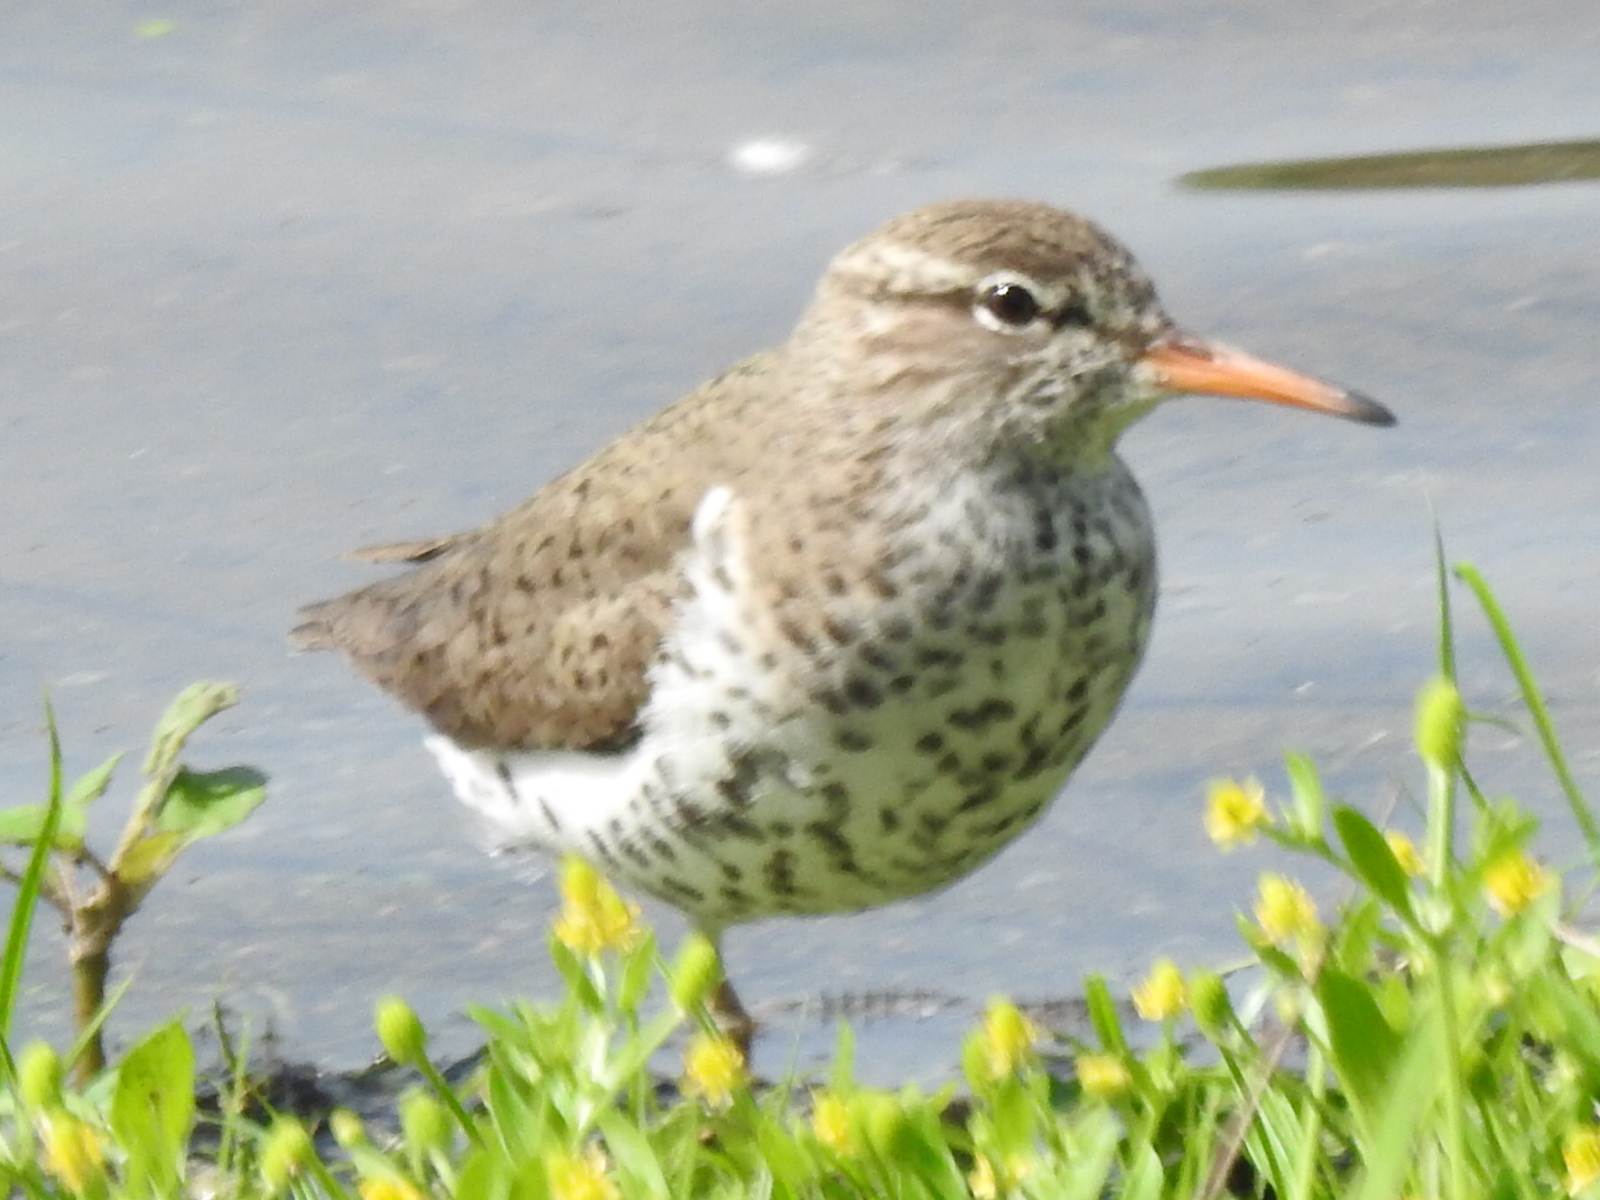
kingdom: Animalia
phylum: Chordata
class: Aves
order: Charadriiformes
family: Scolopacidae
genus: Actitis
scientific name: Actitis macularius
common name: Spotted sandpiper
